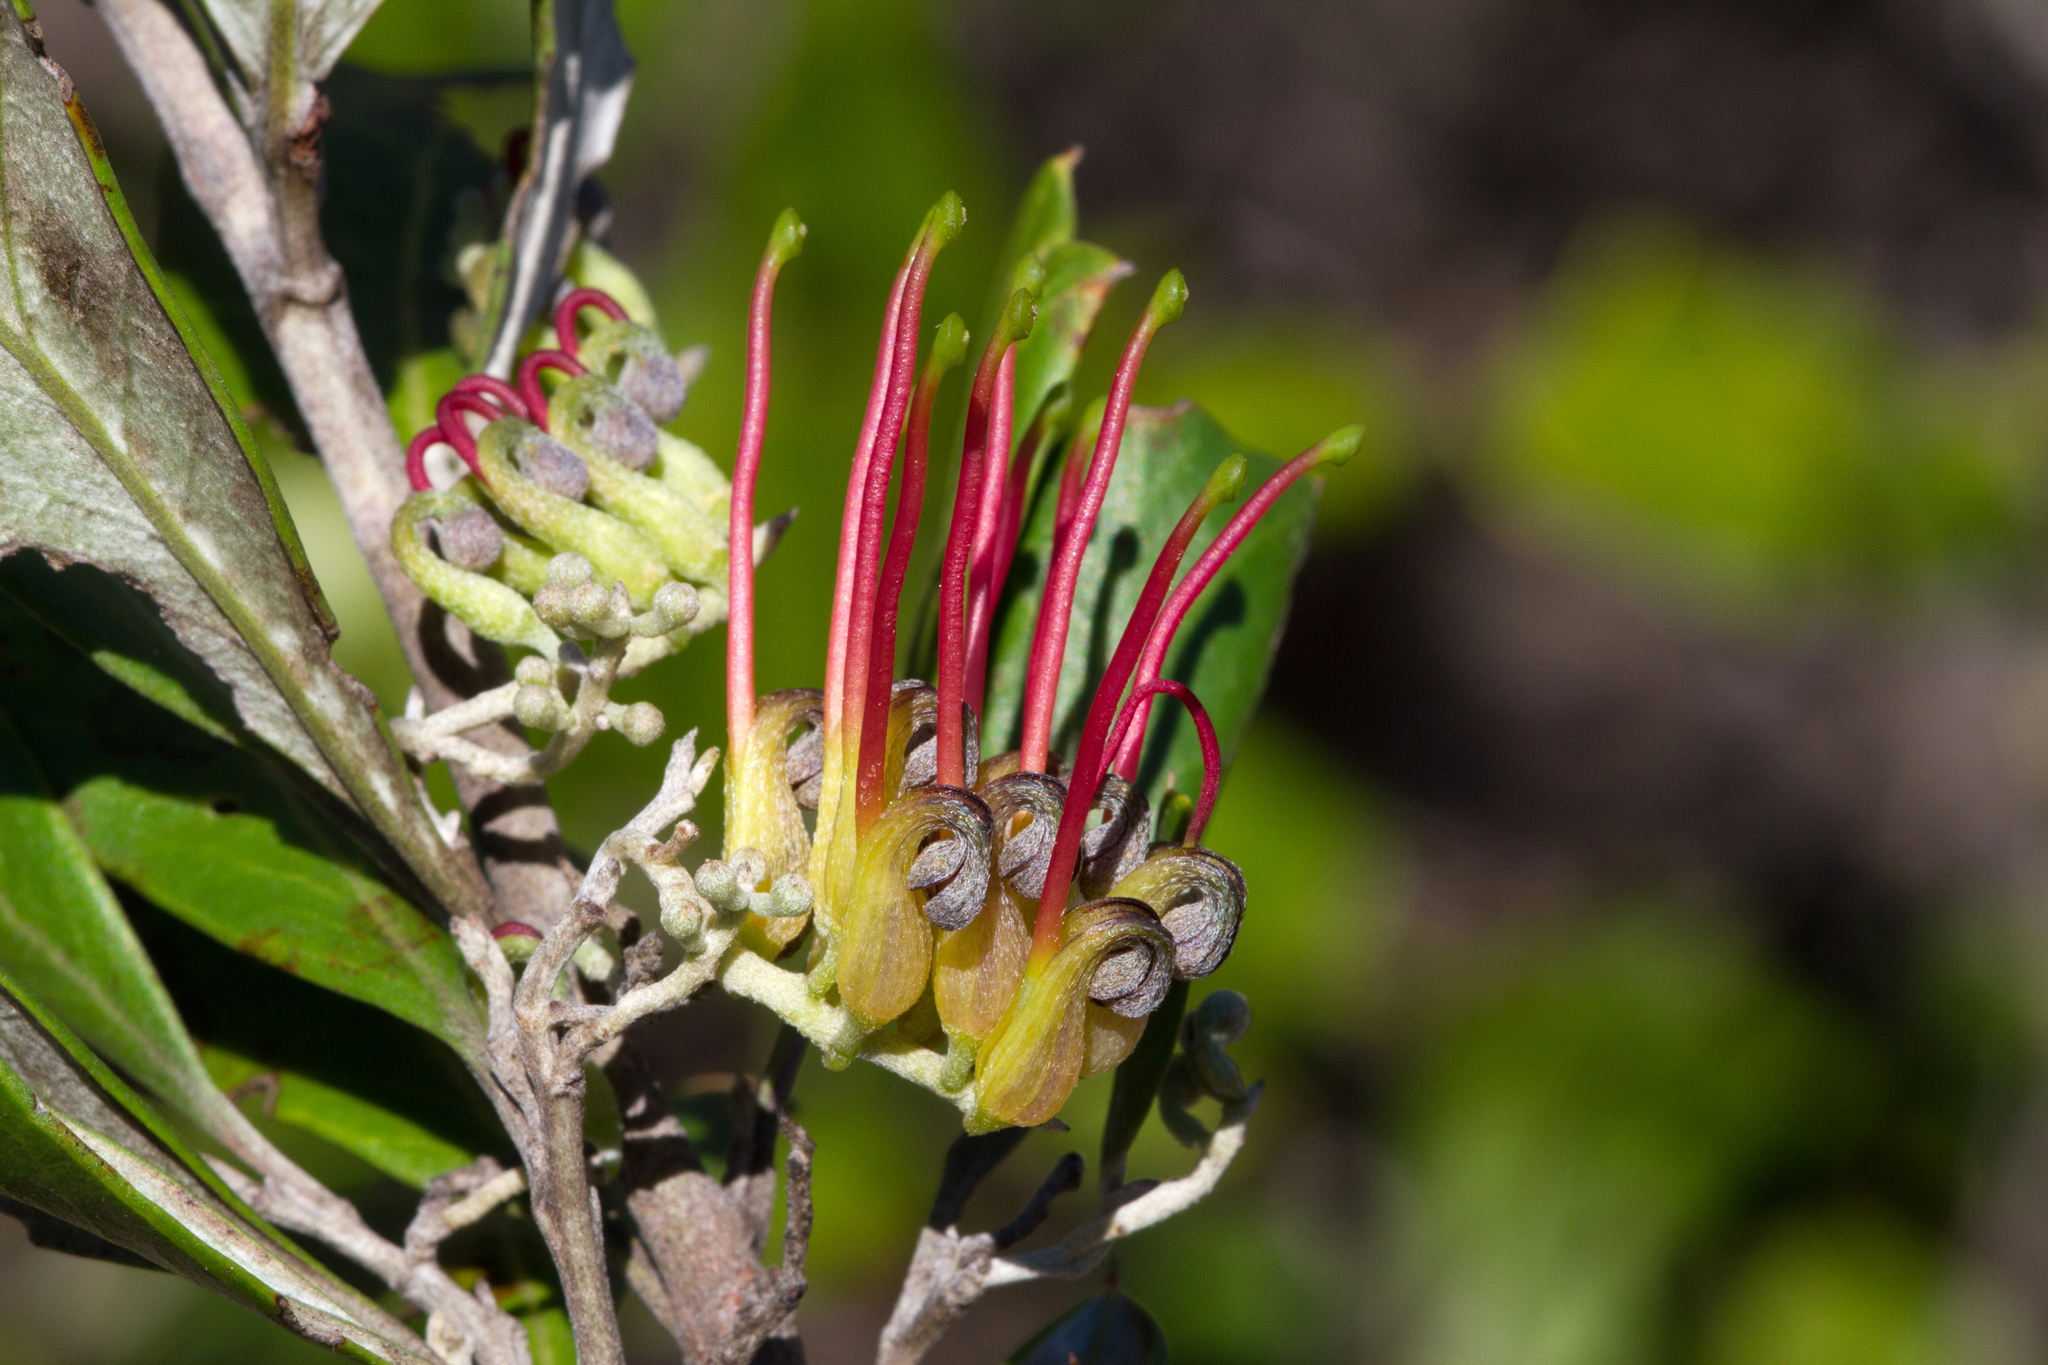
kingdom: Plantae
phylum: Tracheophyta
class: Magnoliopsida
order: Proteales
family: Proteaceae
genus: Grevillea
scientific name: Grevillea ilicifolia
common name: Holly grevillea
